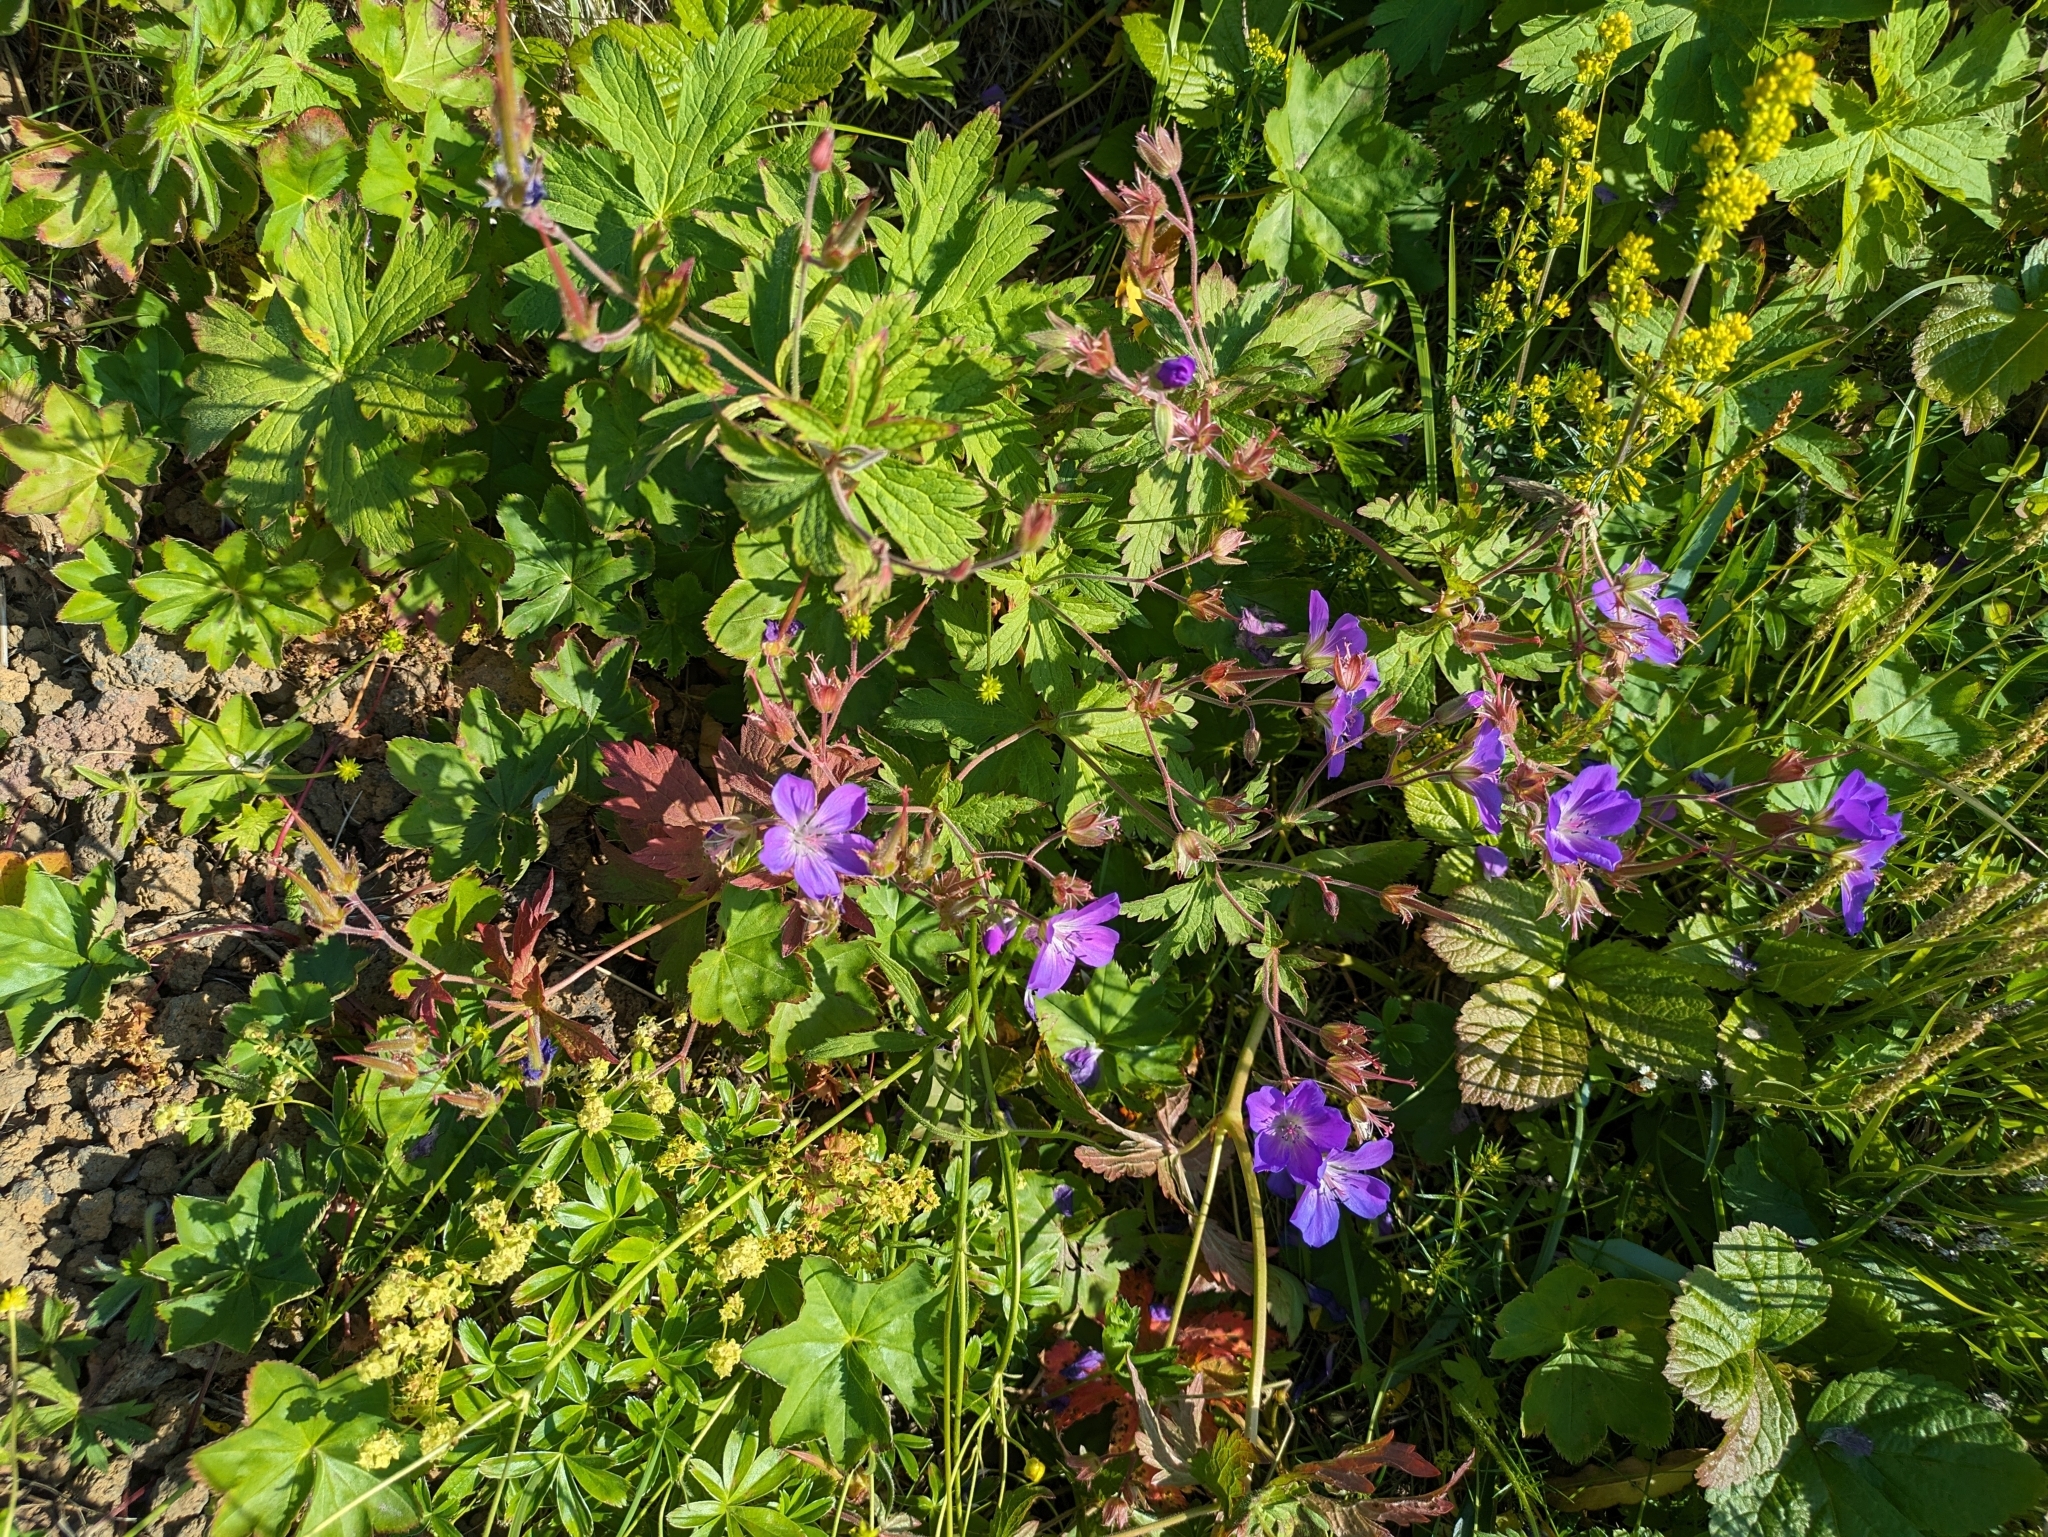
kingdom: Plantae
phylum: Tracheophyta
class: Magnoliopsida
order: Geraniales
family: Geraniaceae
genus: Geranium
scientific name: Geranium sylvaticum
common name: Wood crane's-bill
